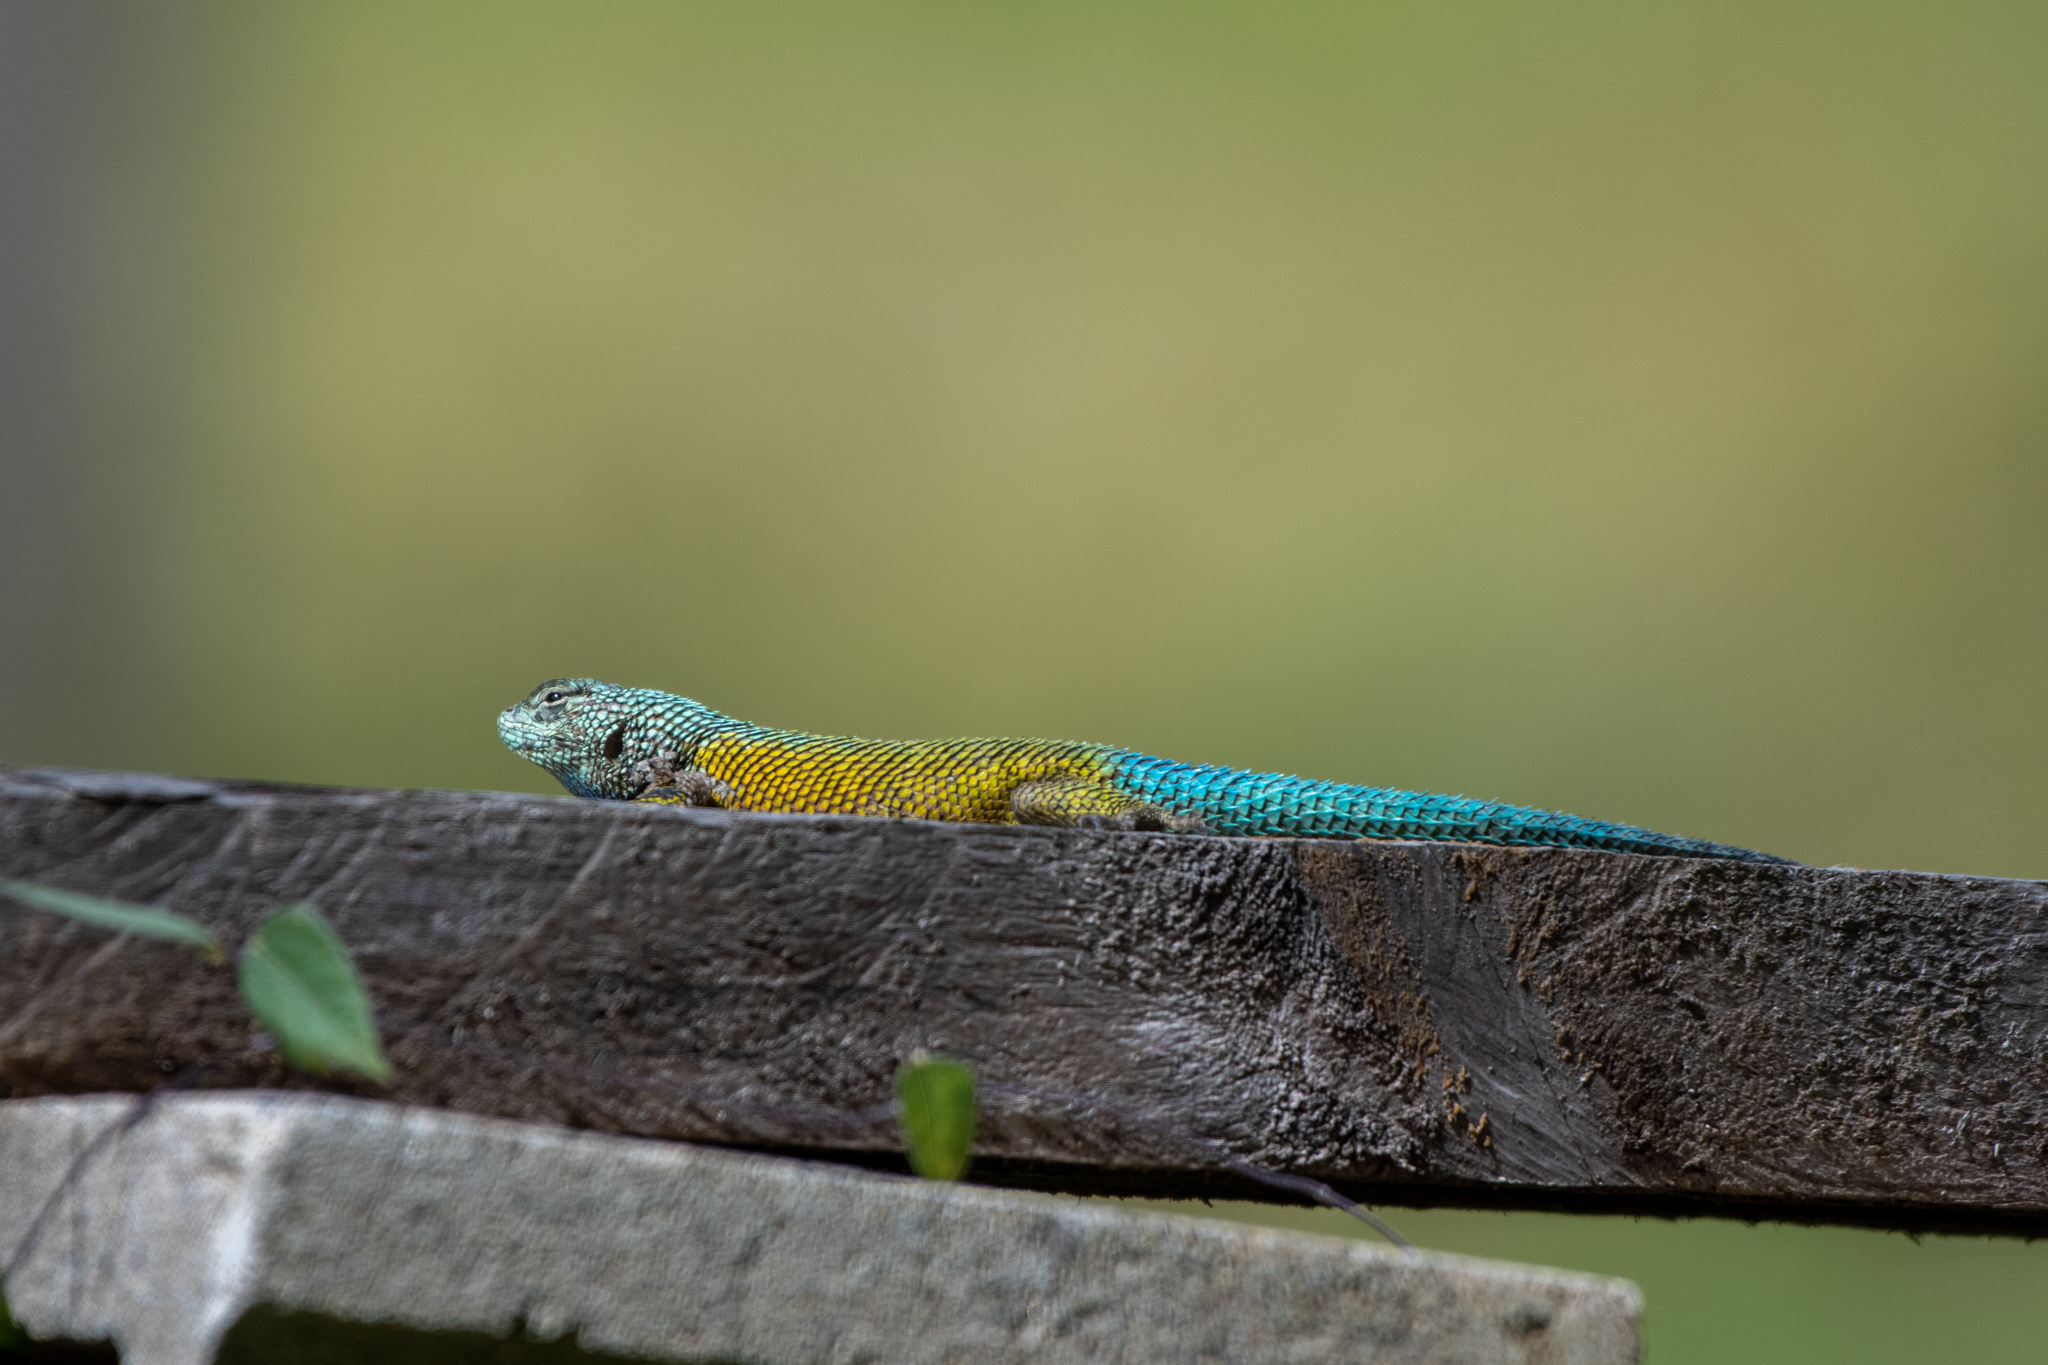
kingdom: Animalia
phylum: Chordata
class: Squamata
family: Phrynosomatidae
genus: Sceloporus
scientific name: Sceloporus esperanzae
